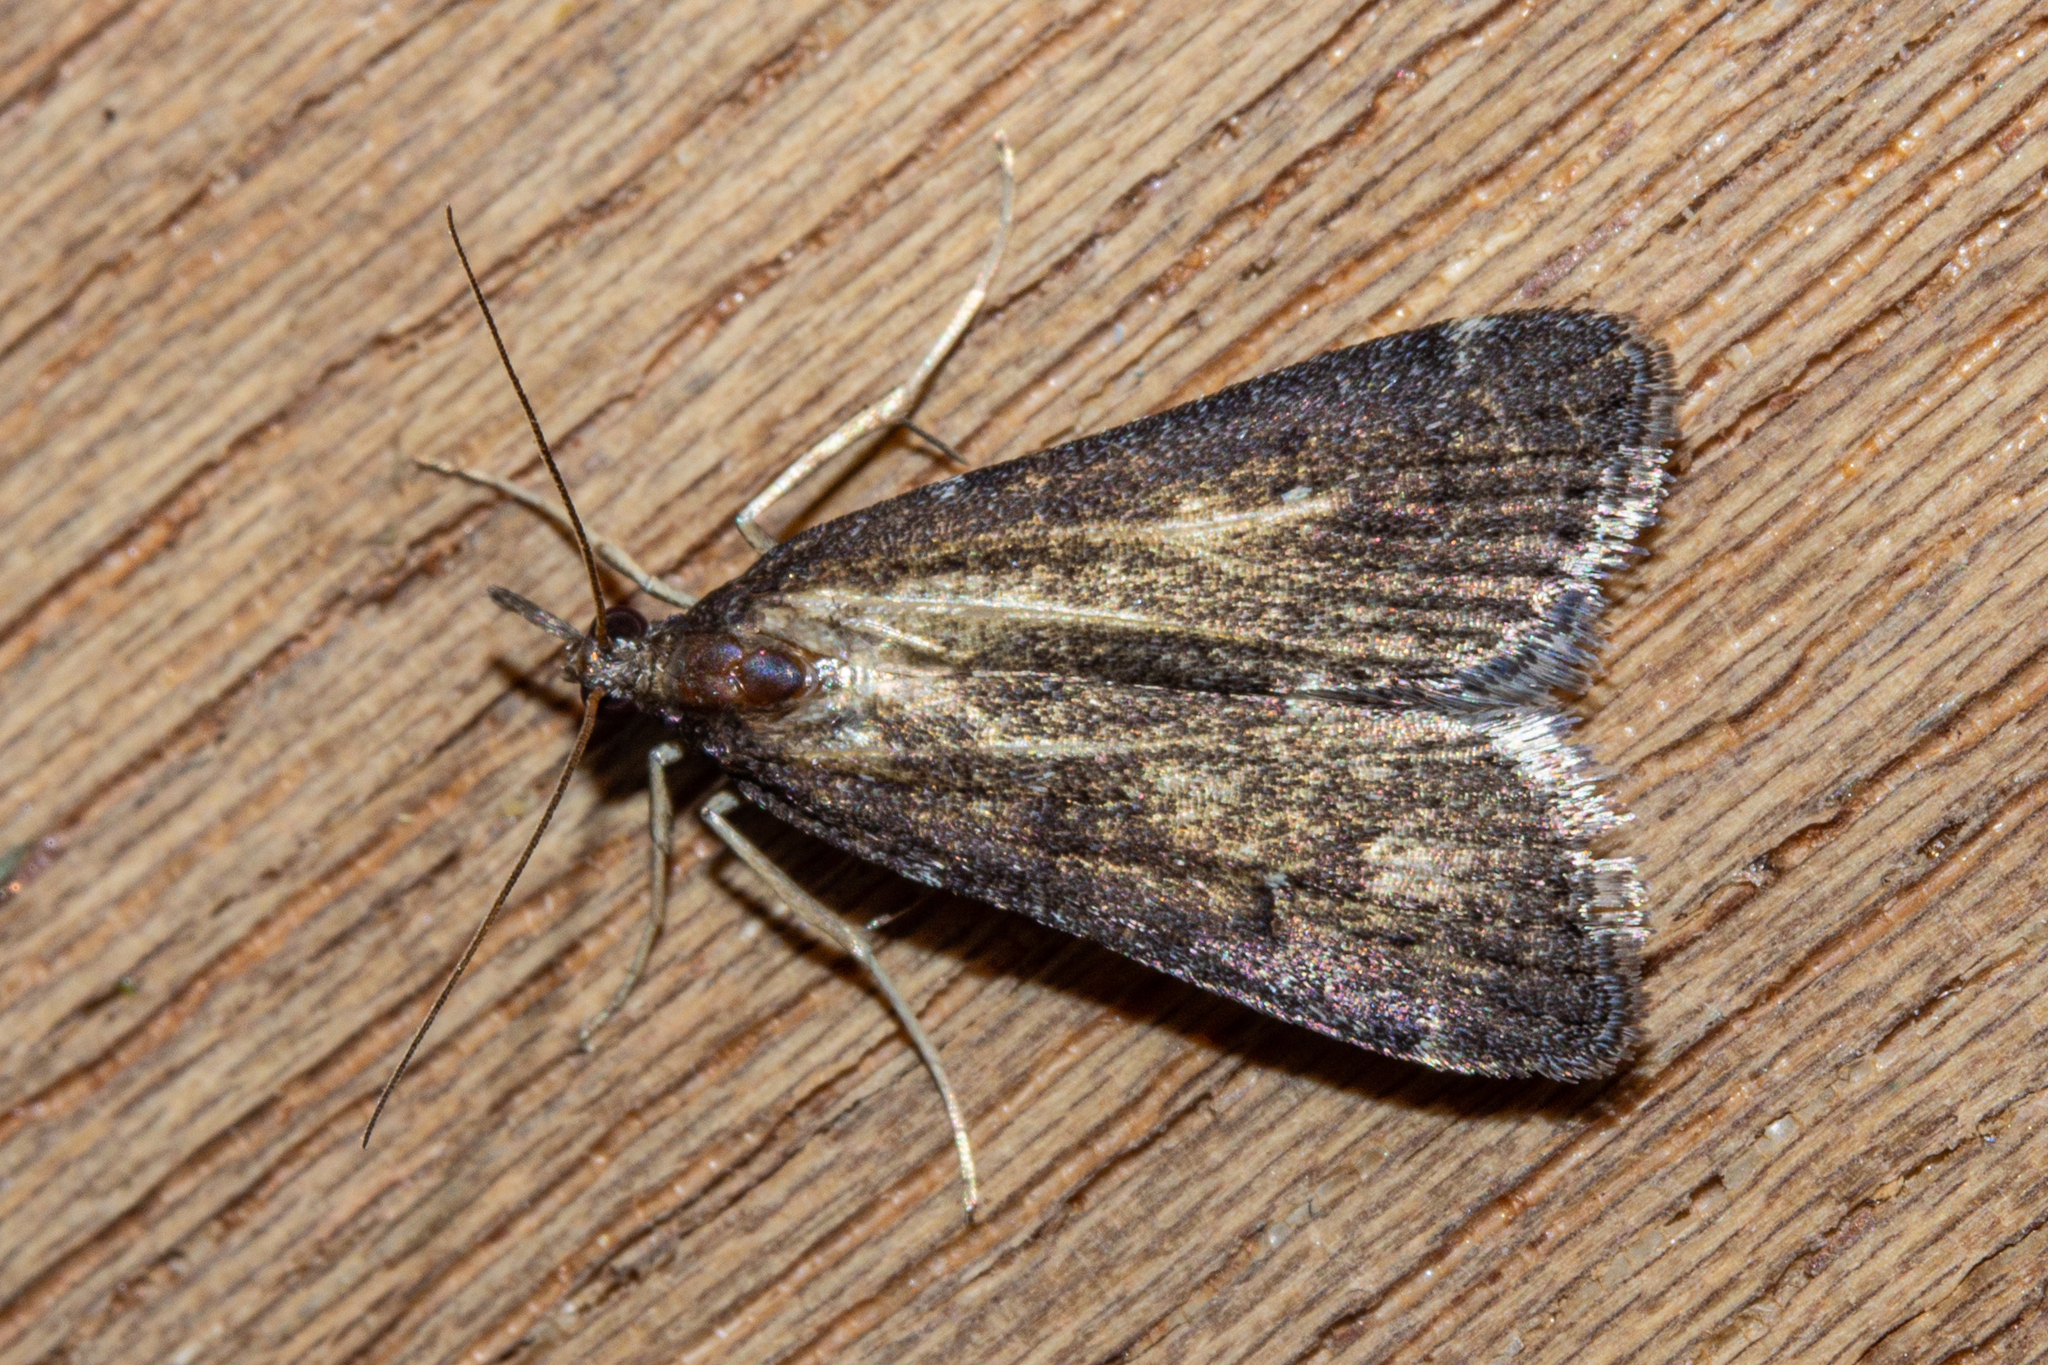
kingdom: Animalia
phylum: Arthropoda
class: Insecta
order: Lepidoptera
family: Crambidae
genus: Eudonia
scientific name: Eudonia oculata
